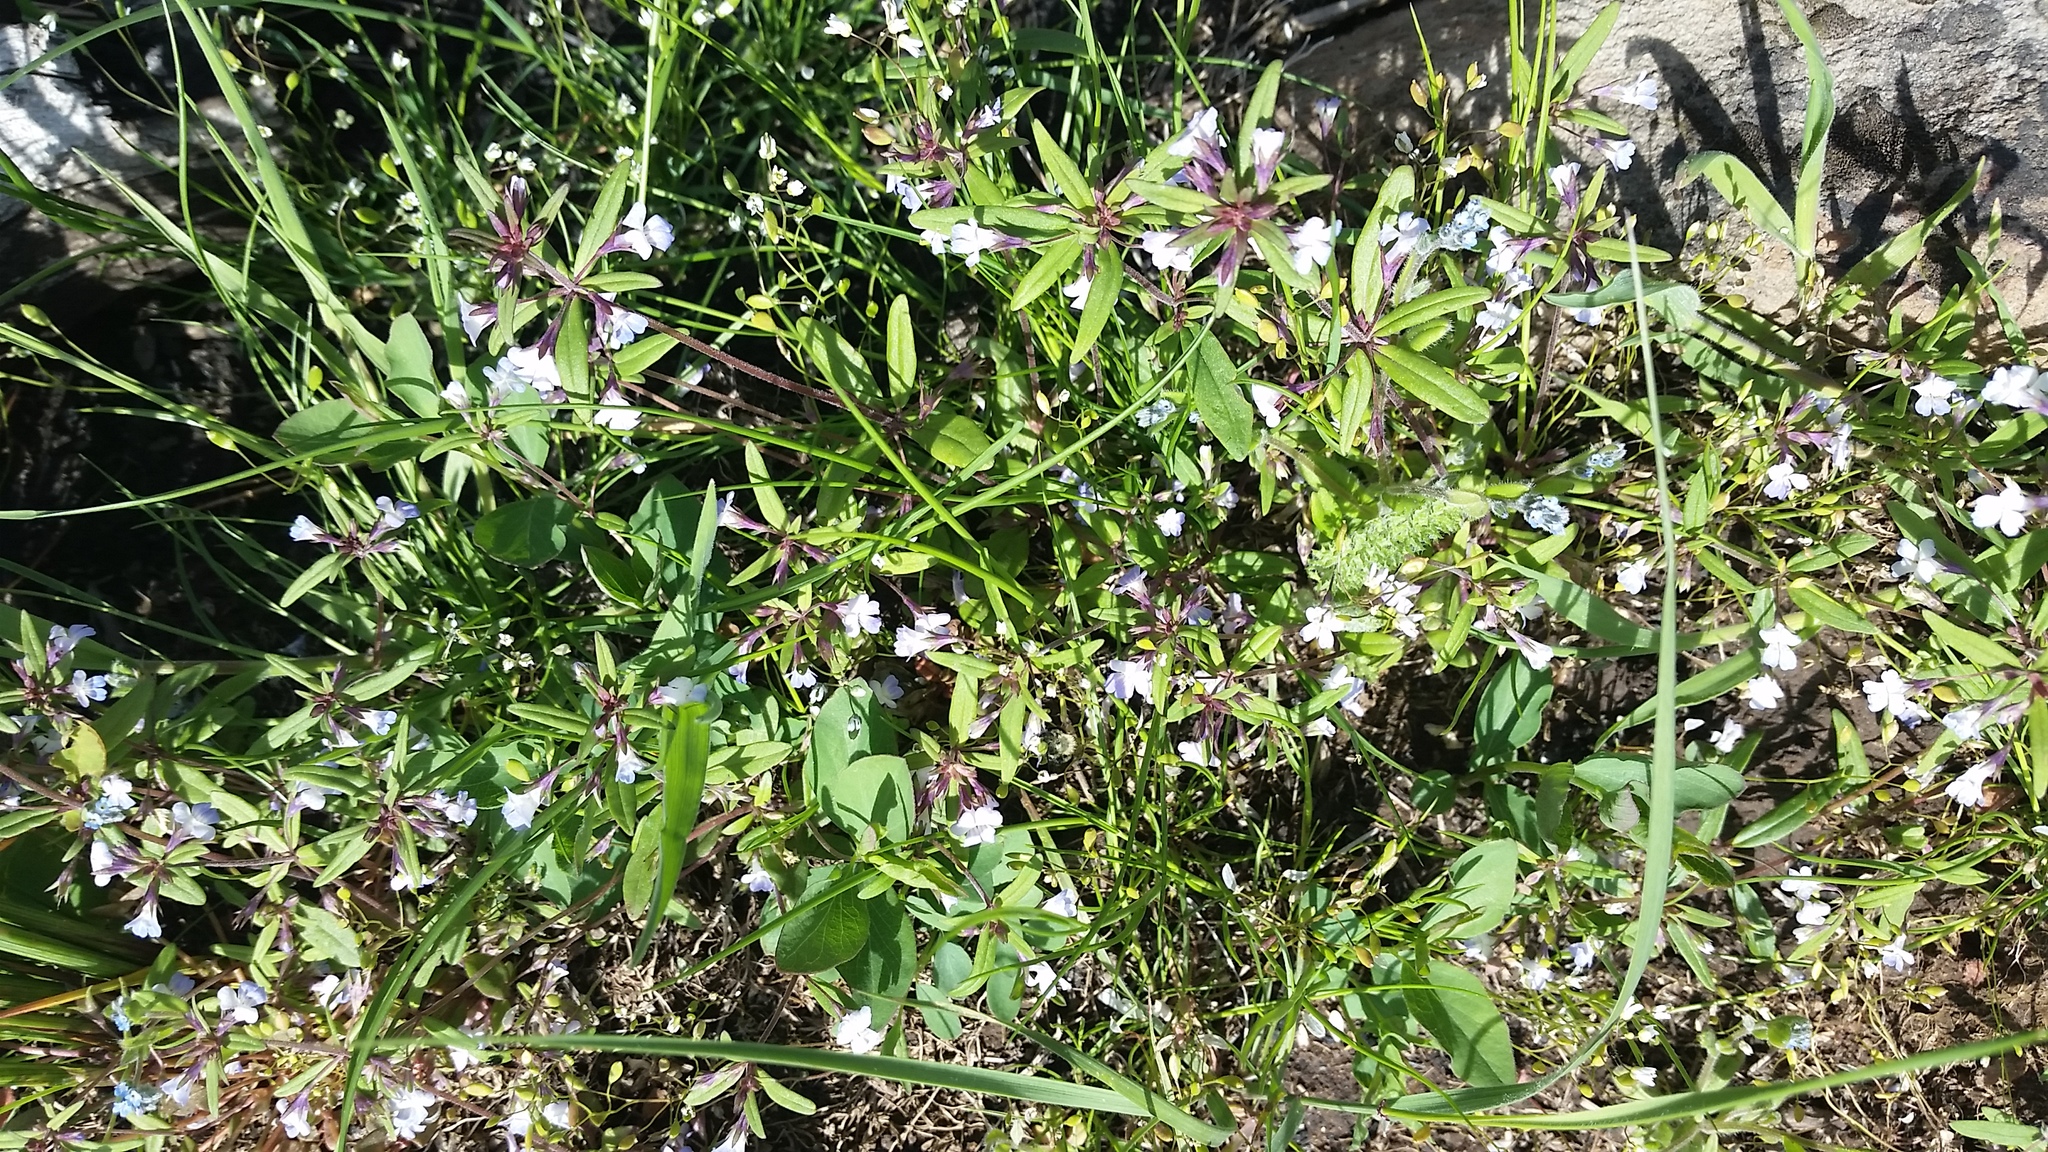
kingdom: Plantae
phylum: Tracheophyta
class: Magnoliopsida
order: Lamiales
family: Plantaginaceae
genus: Collinsia
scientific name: Collinsia parviflora
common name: Blue-lips
